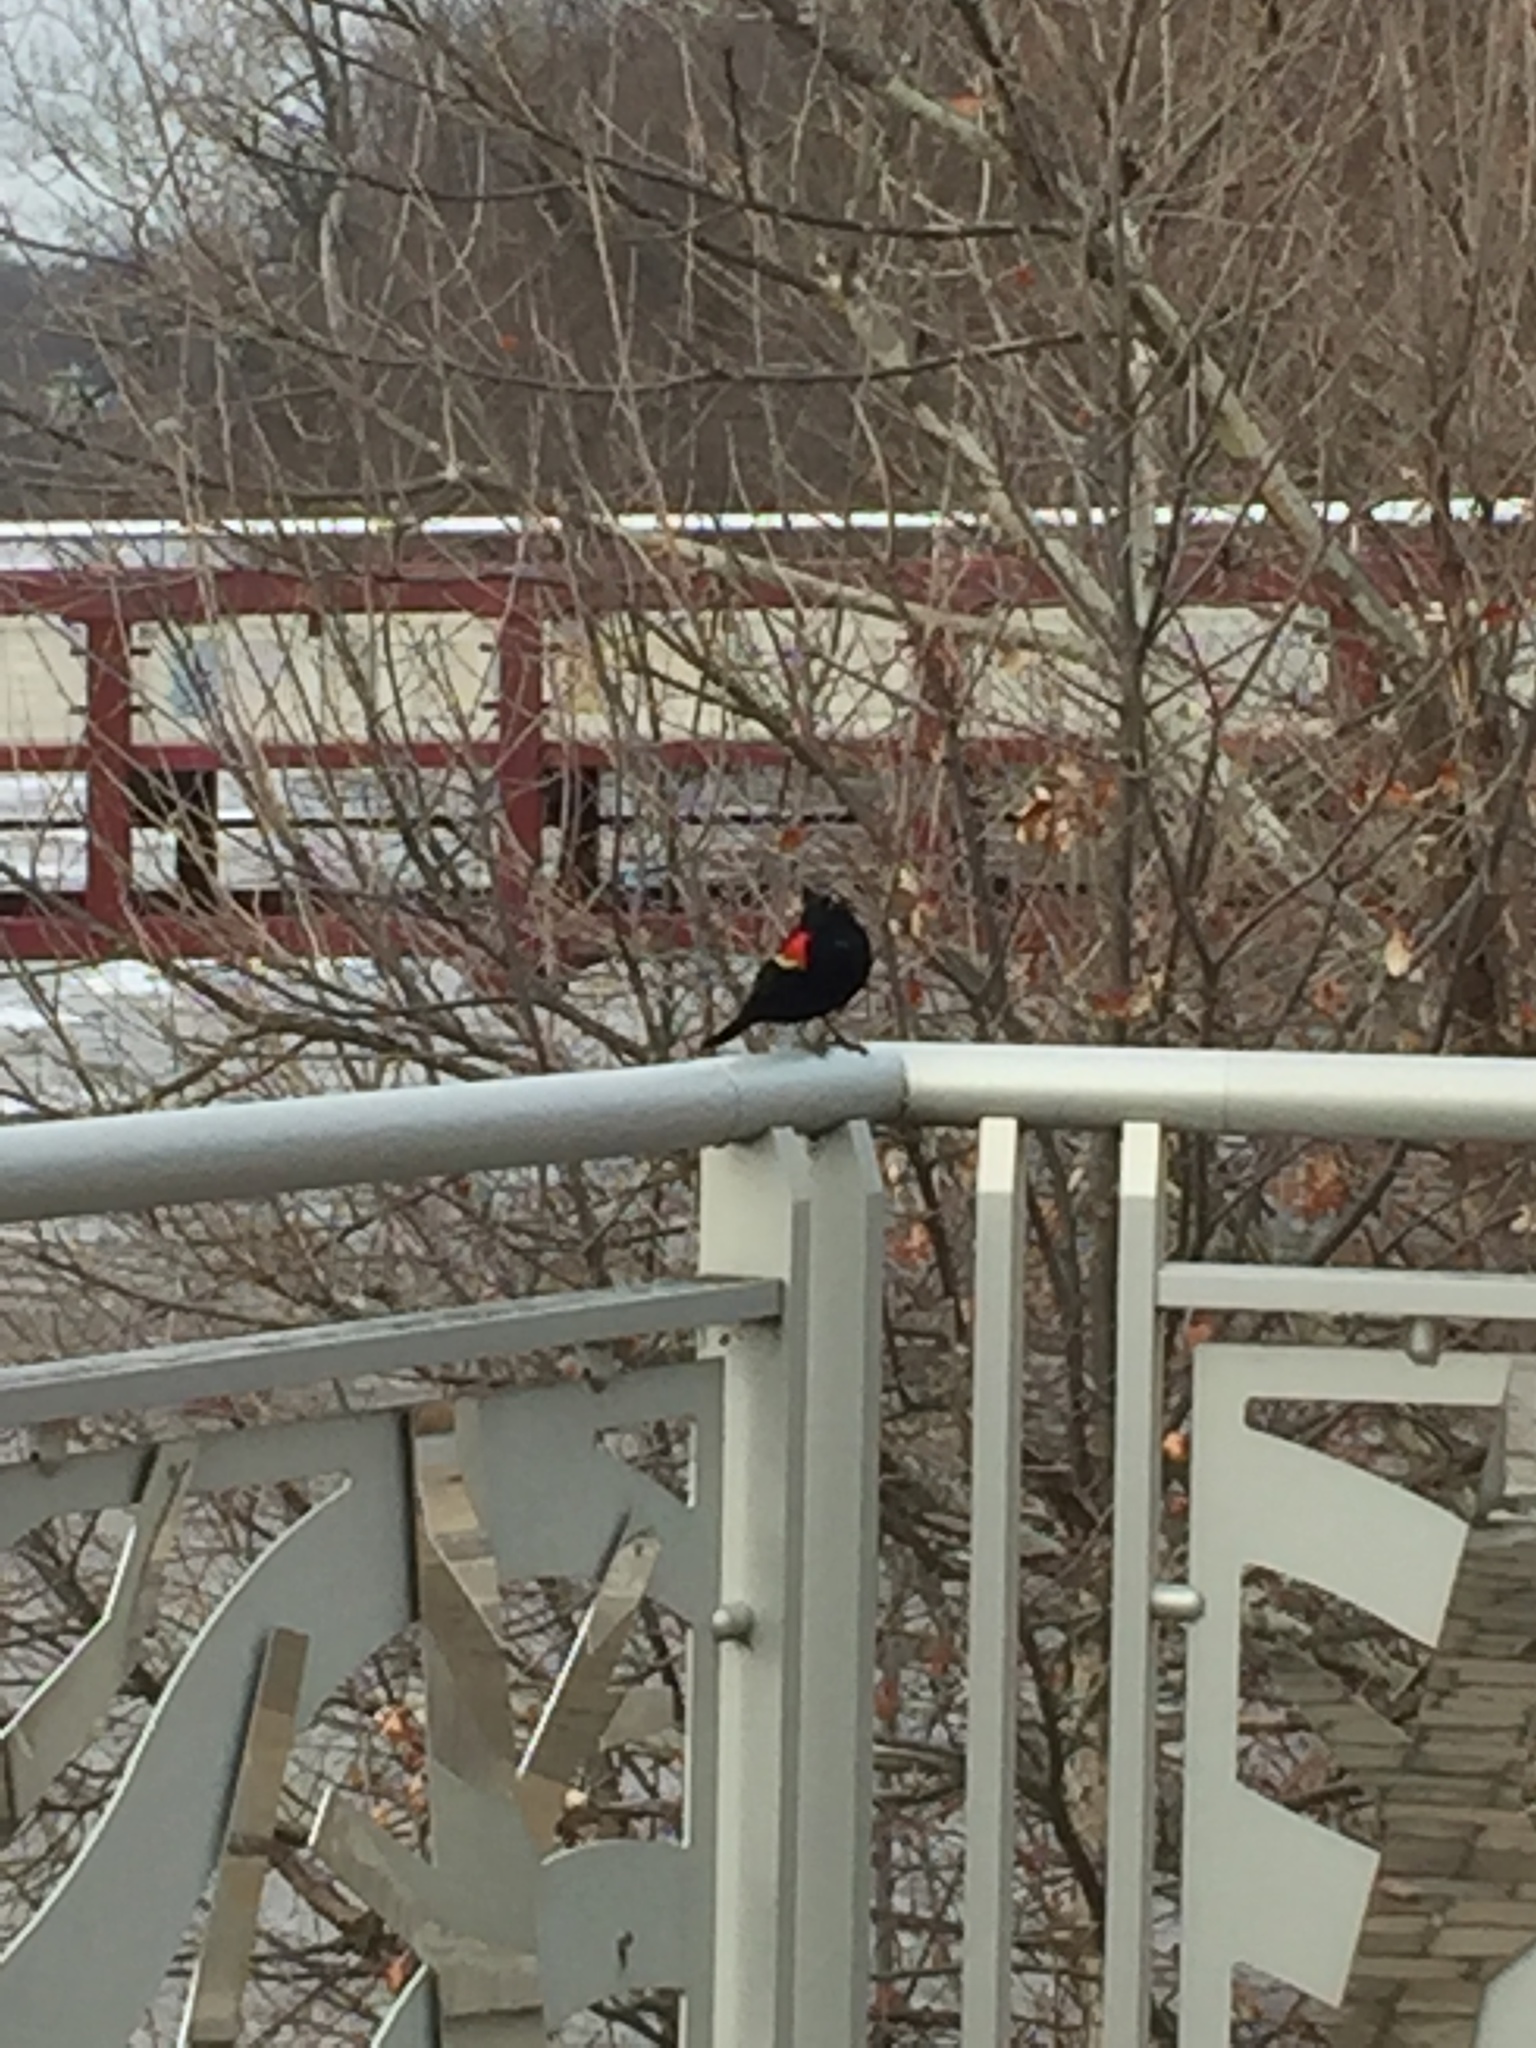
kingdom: Animalia
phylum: Chordata
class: Aves
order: Passeriformes
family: Icteridae
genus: Agelaius
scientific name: Agelaius phoeniceus
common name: Red-winged blackbird
